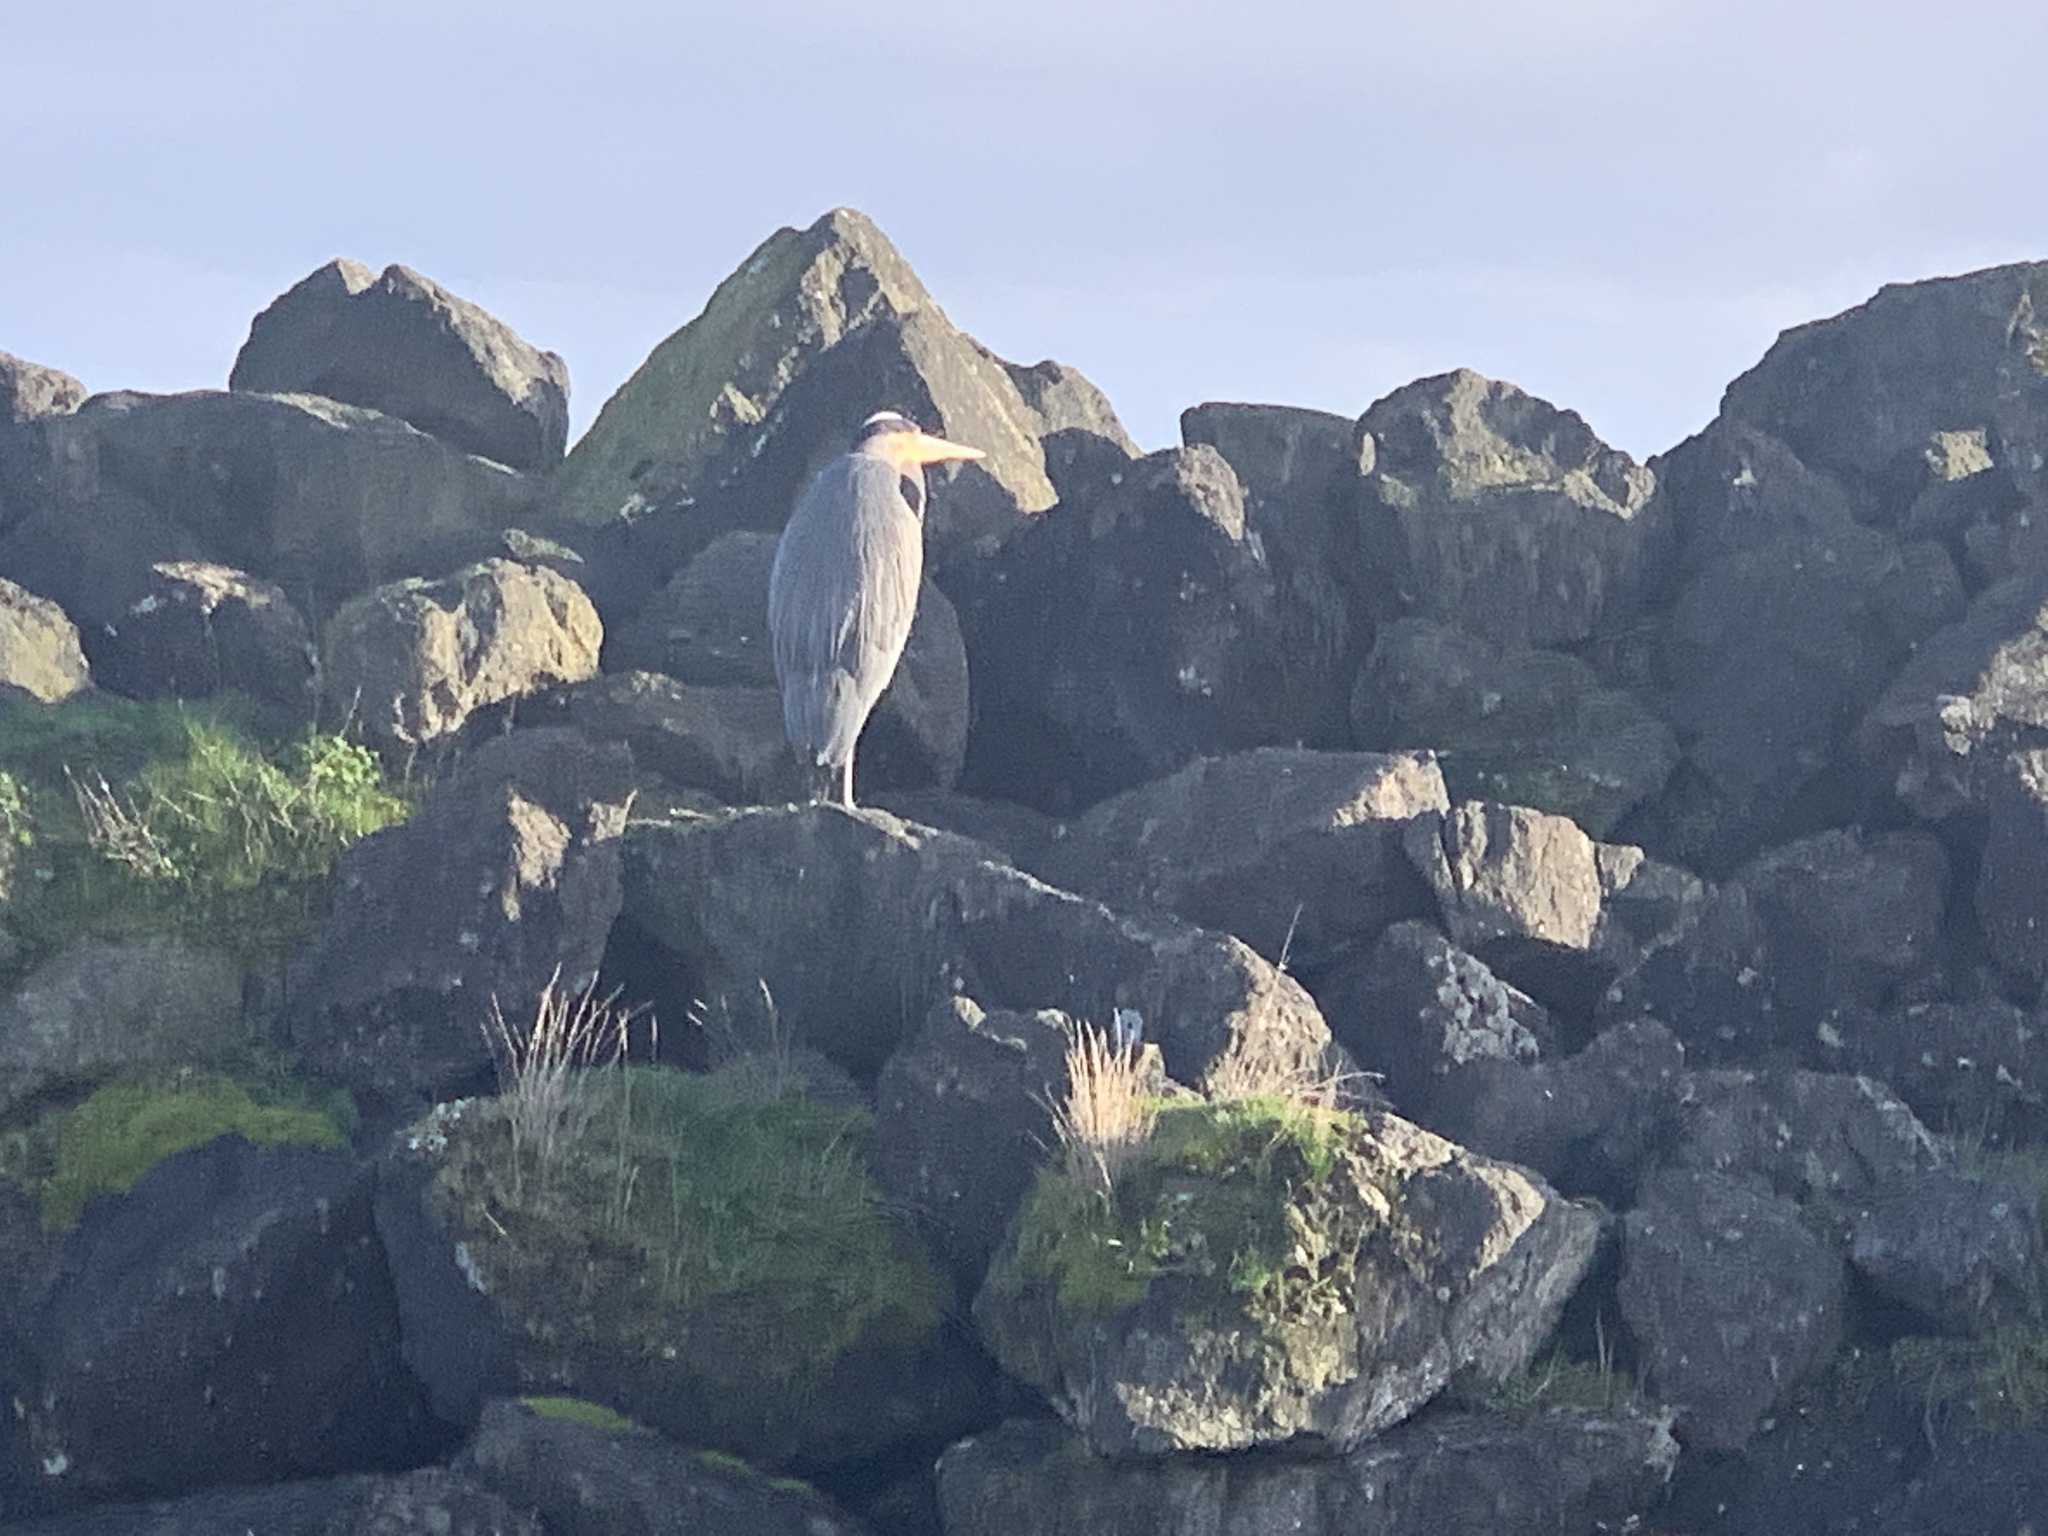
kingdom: Animalia
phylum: Chordata
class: Aves
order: Pelecaniformes
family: Ardeidae
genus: Ardea
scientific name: Ardea herodias
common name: Great blue heron
